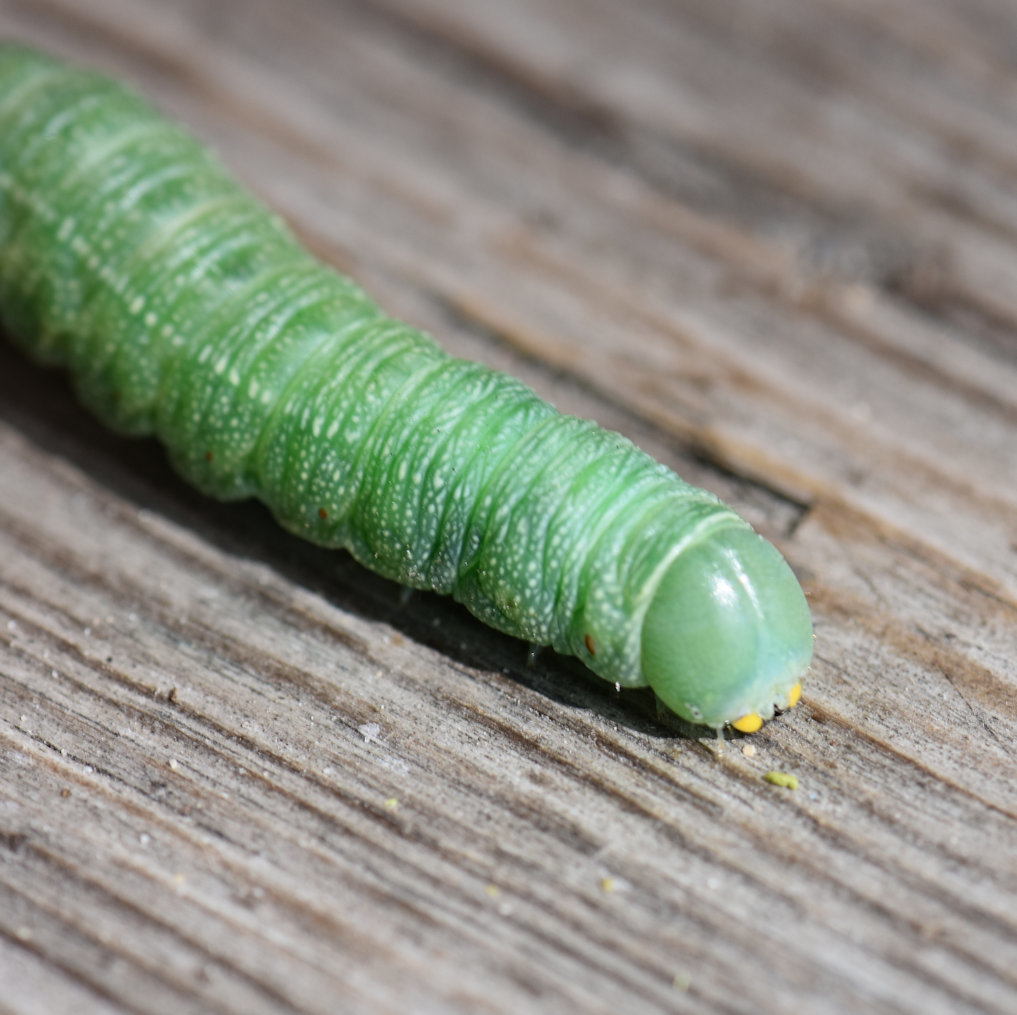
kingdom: Animalia
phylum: Arthropoda
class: Insecta
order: Lepidoptera
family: Notodontidae
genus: Nadata
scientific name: Nadata gibbosa
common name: White-dotted prominent
